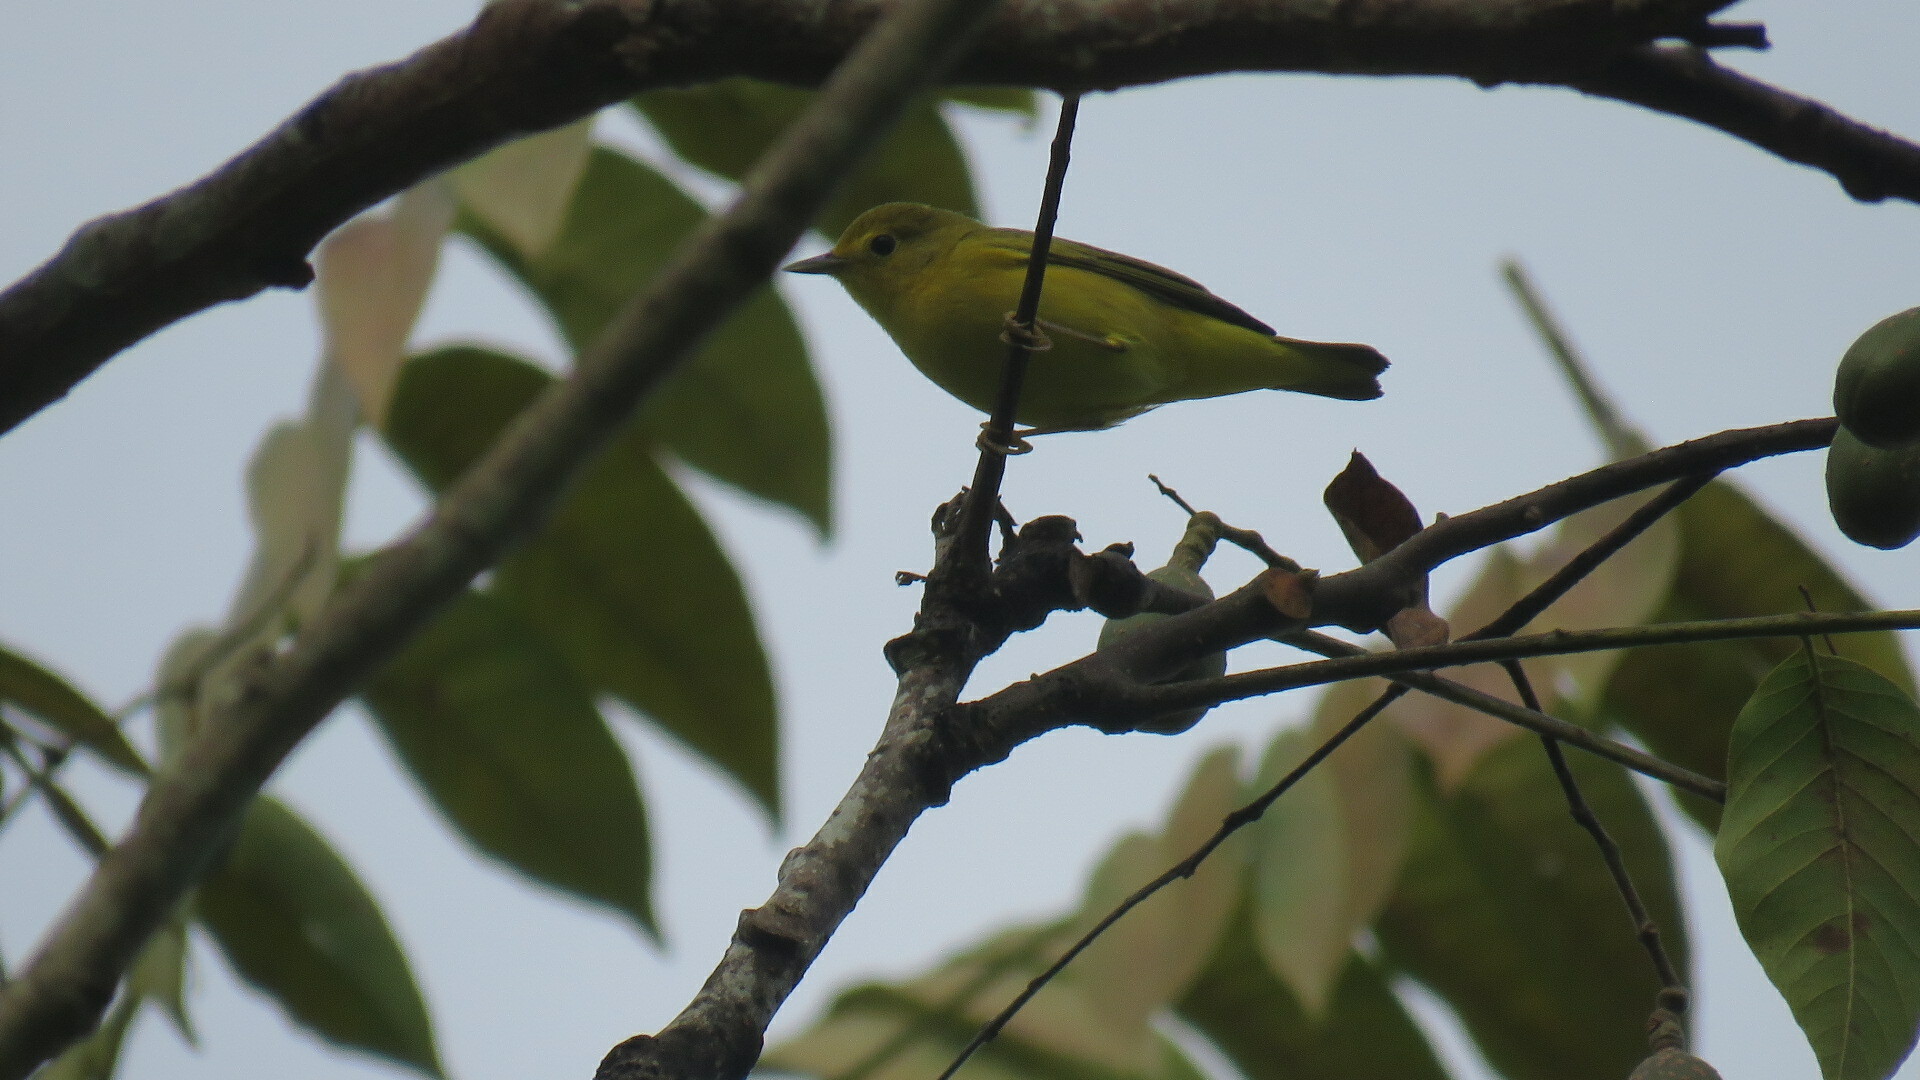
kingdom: Animalia
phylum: Chordata
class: Aves
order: Passeriformes
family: Parulidae
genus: Setophaga
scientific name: Setophaga petechia
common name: Yellow warbler
